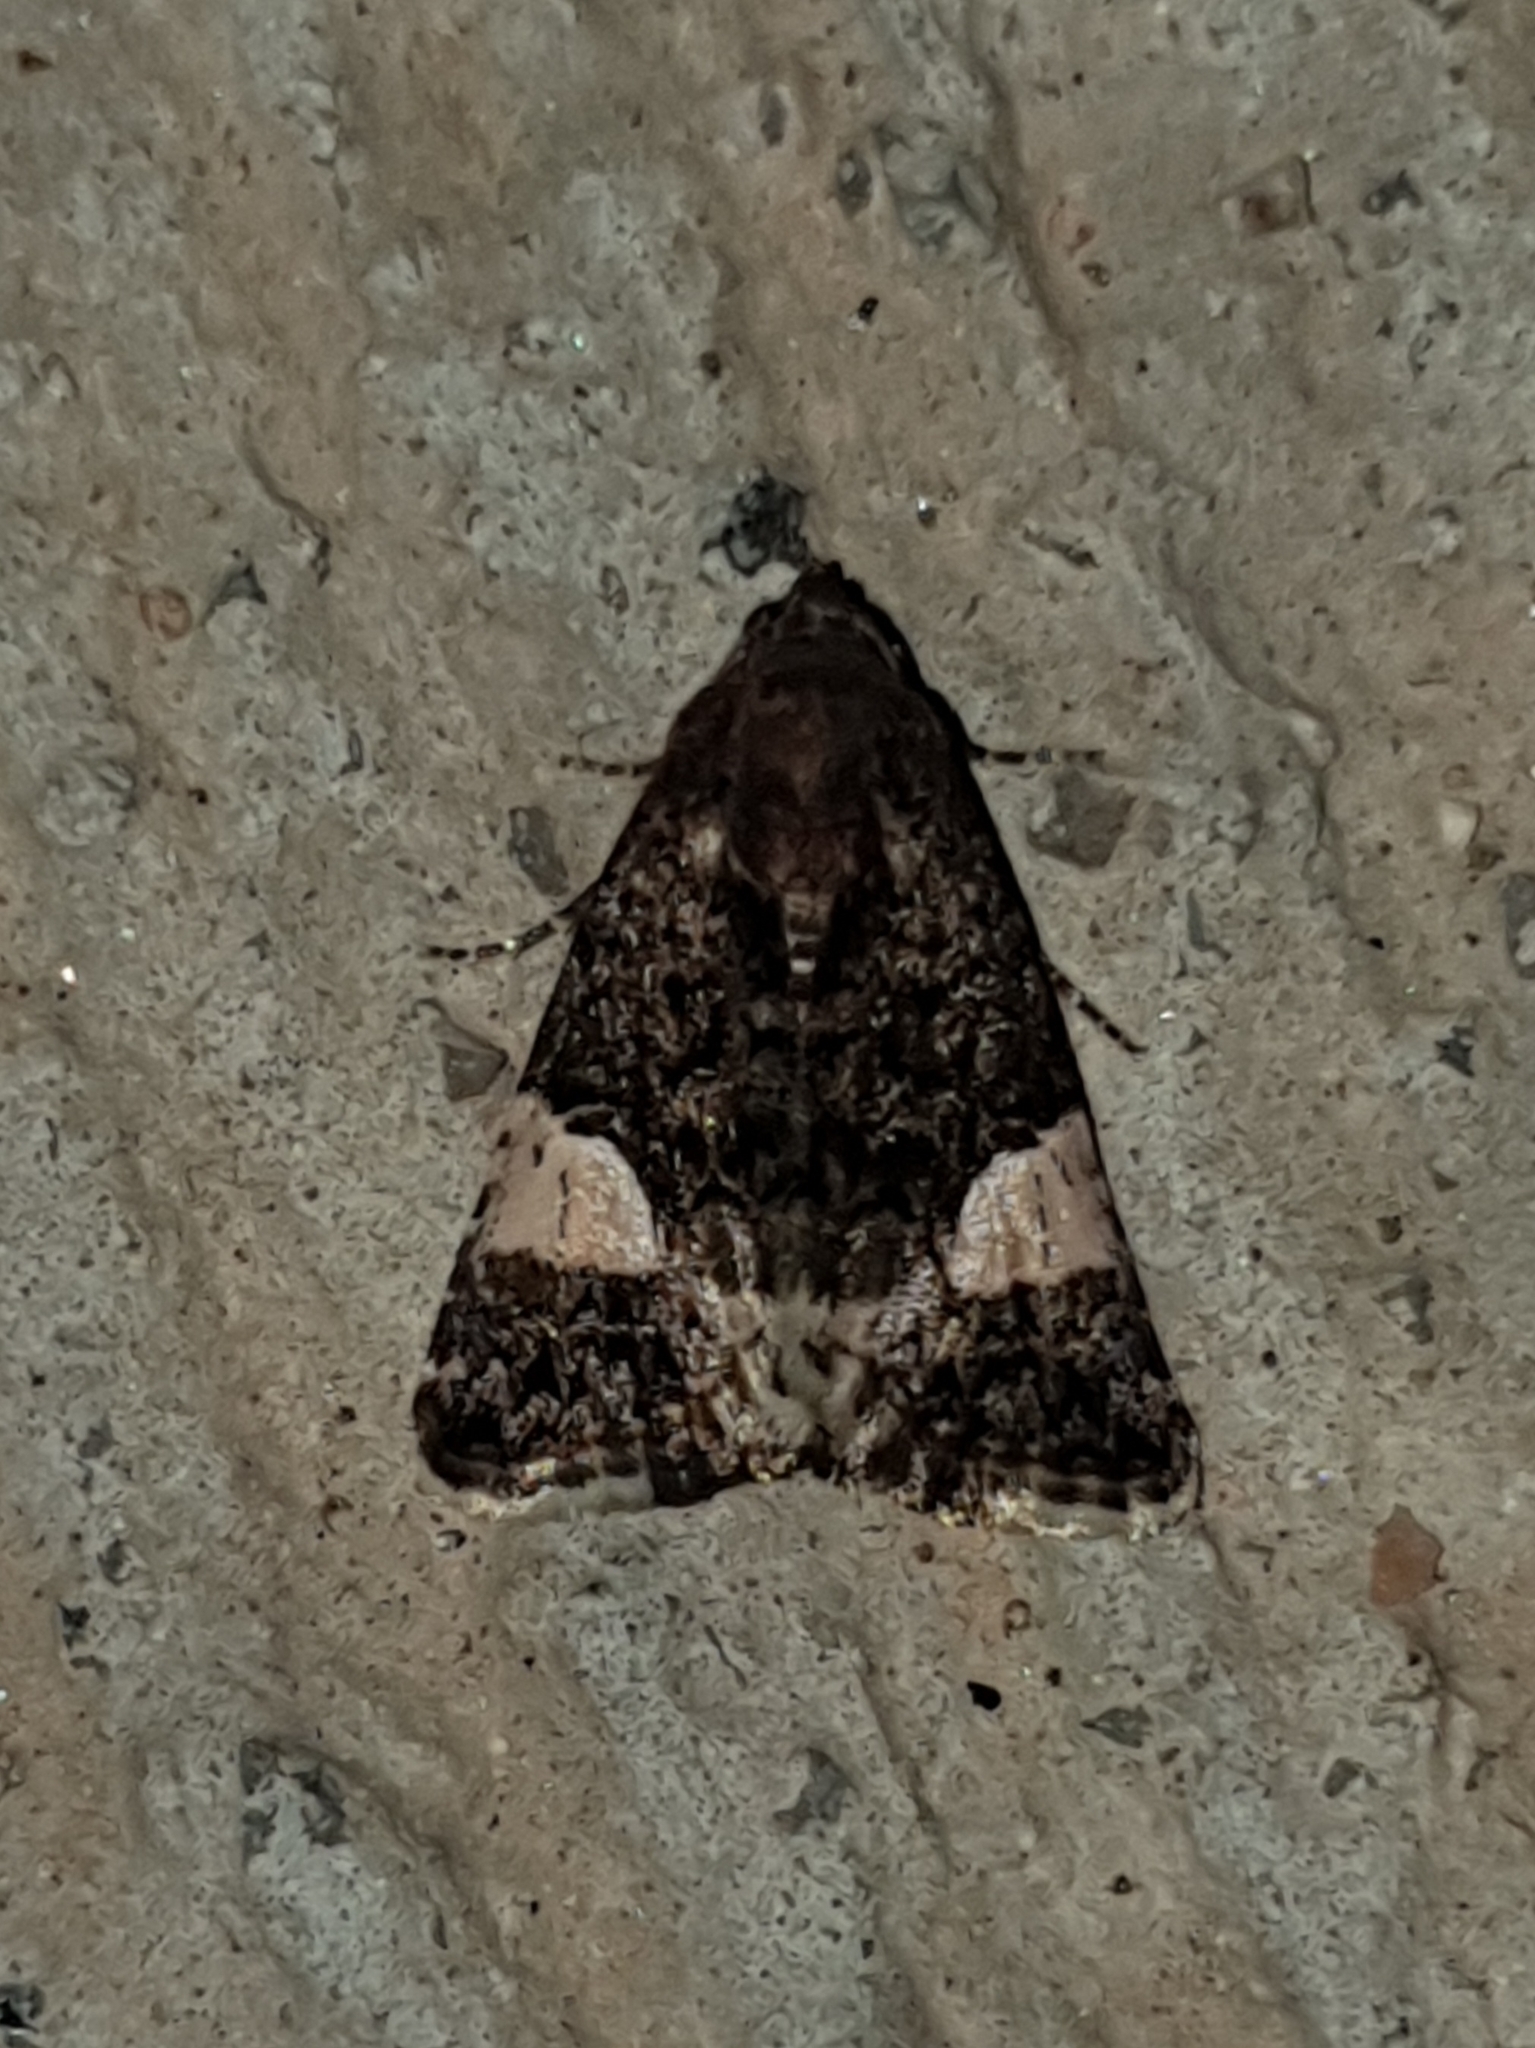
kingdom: Animalia
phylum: Arthropoda
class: Insecta
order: Lepidoptera
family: Erebidae
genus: Tyta
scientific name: Tyta luctuosa
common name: Four-spotted
